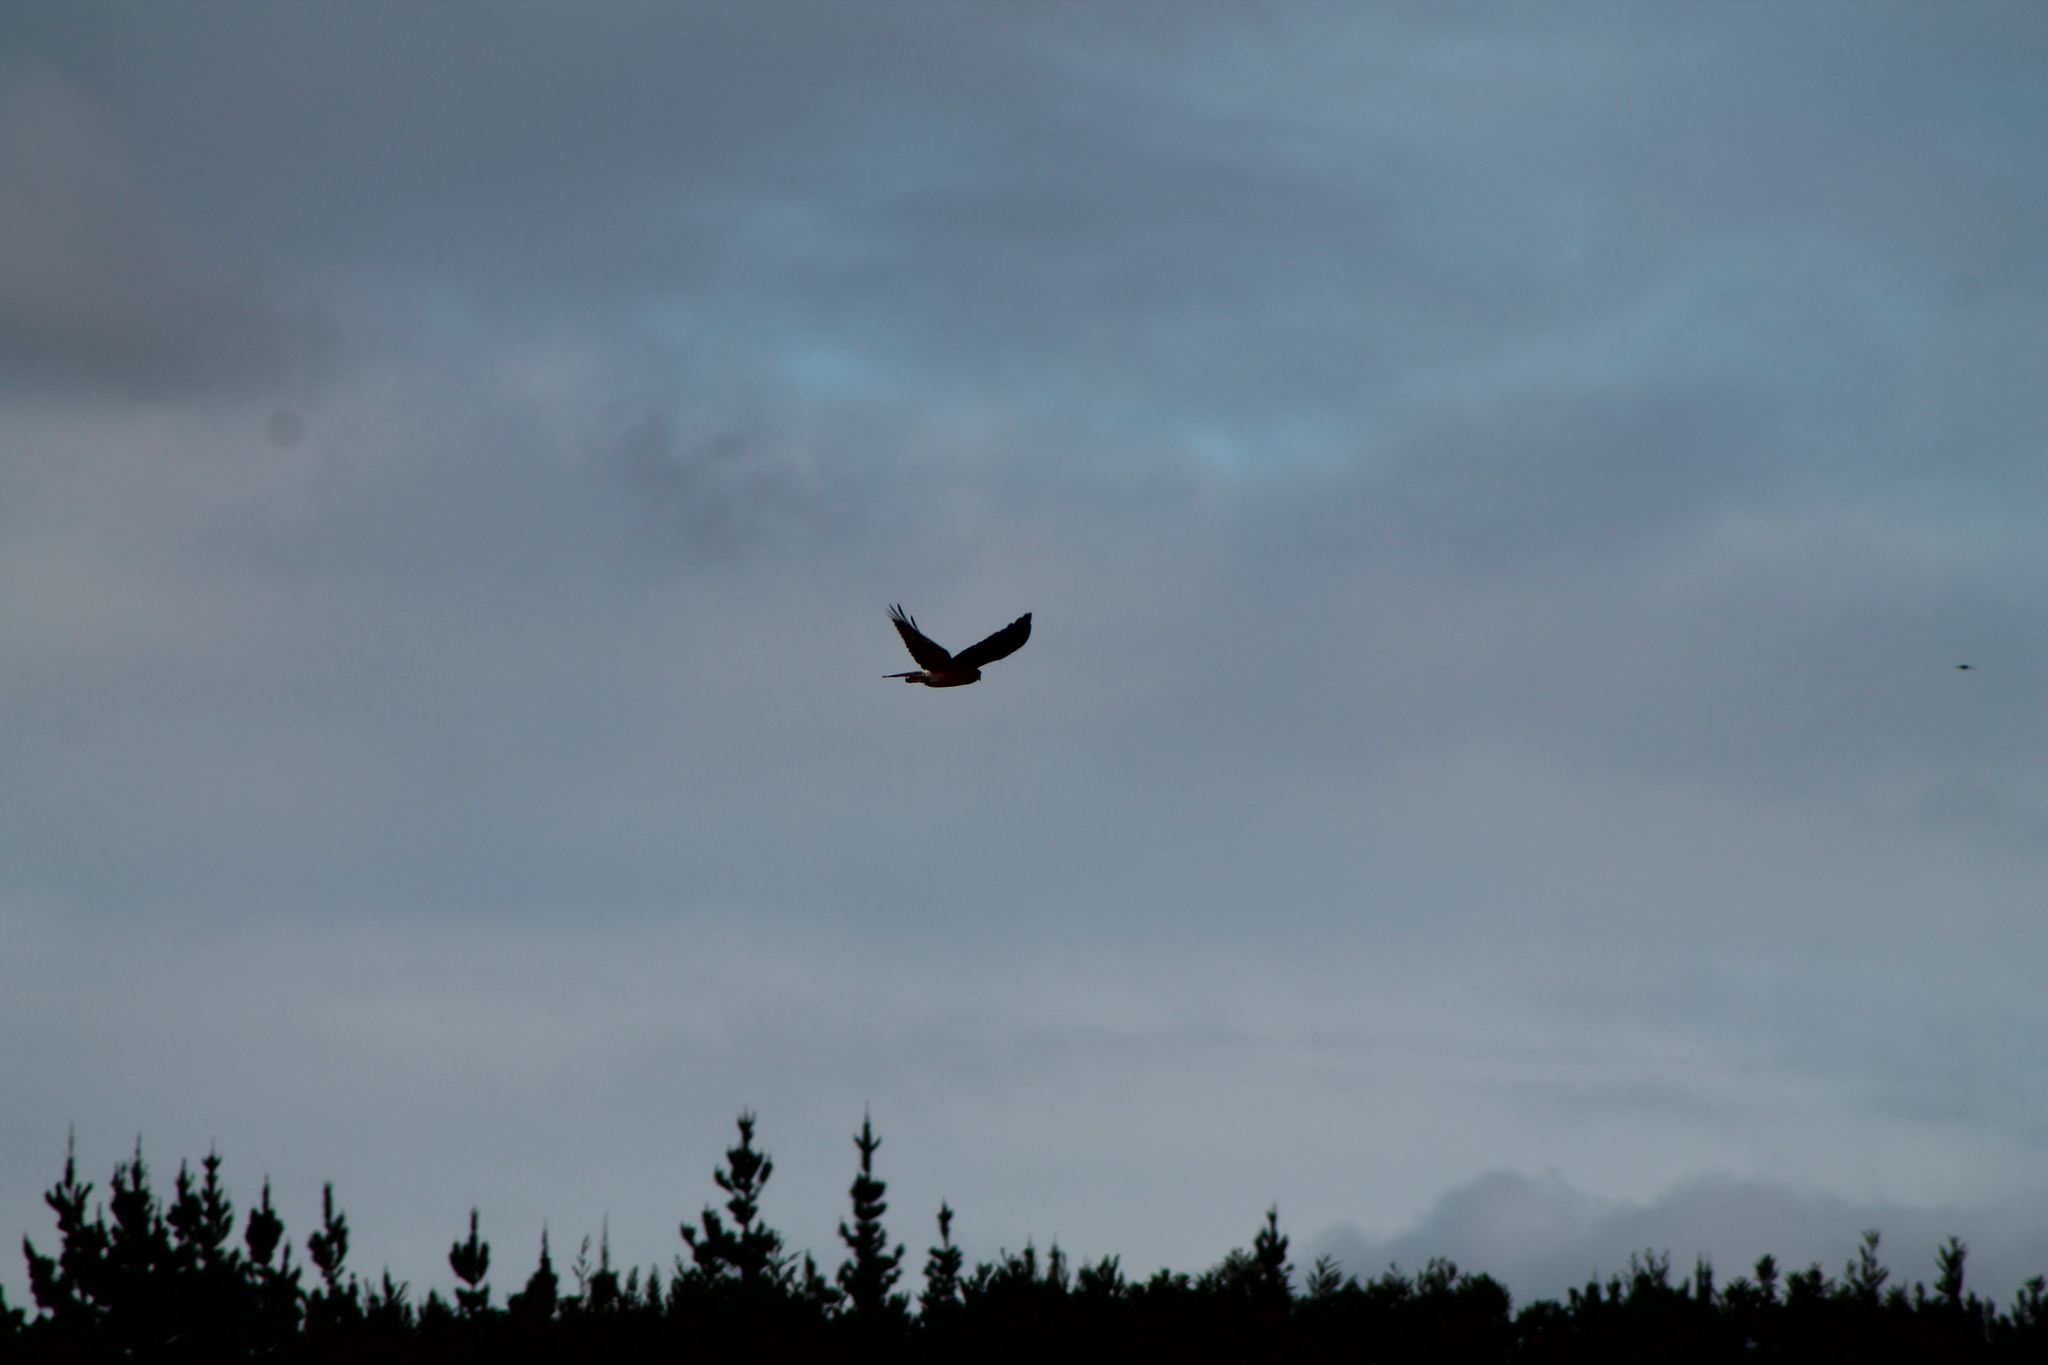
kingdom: Animalia
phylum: Chordata
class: Aves
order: Accipitriformes
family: Accipitridae
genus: Circus
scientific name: Circus approximans
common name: Swamp harrier
